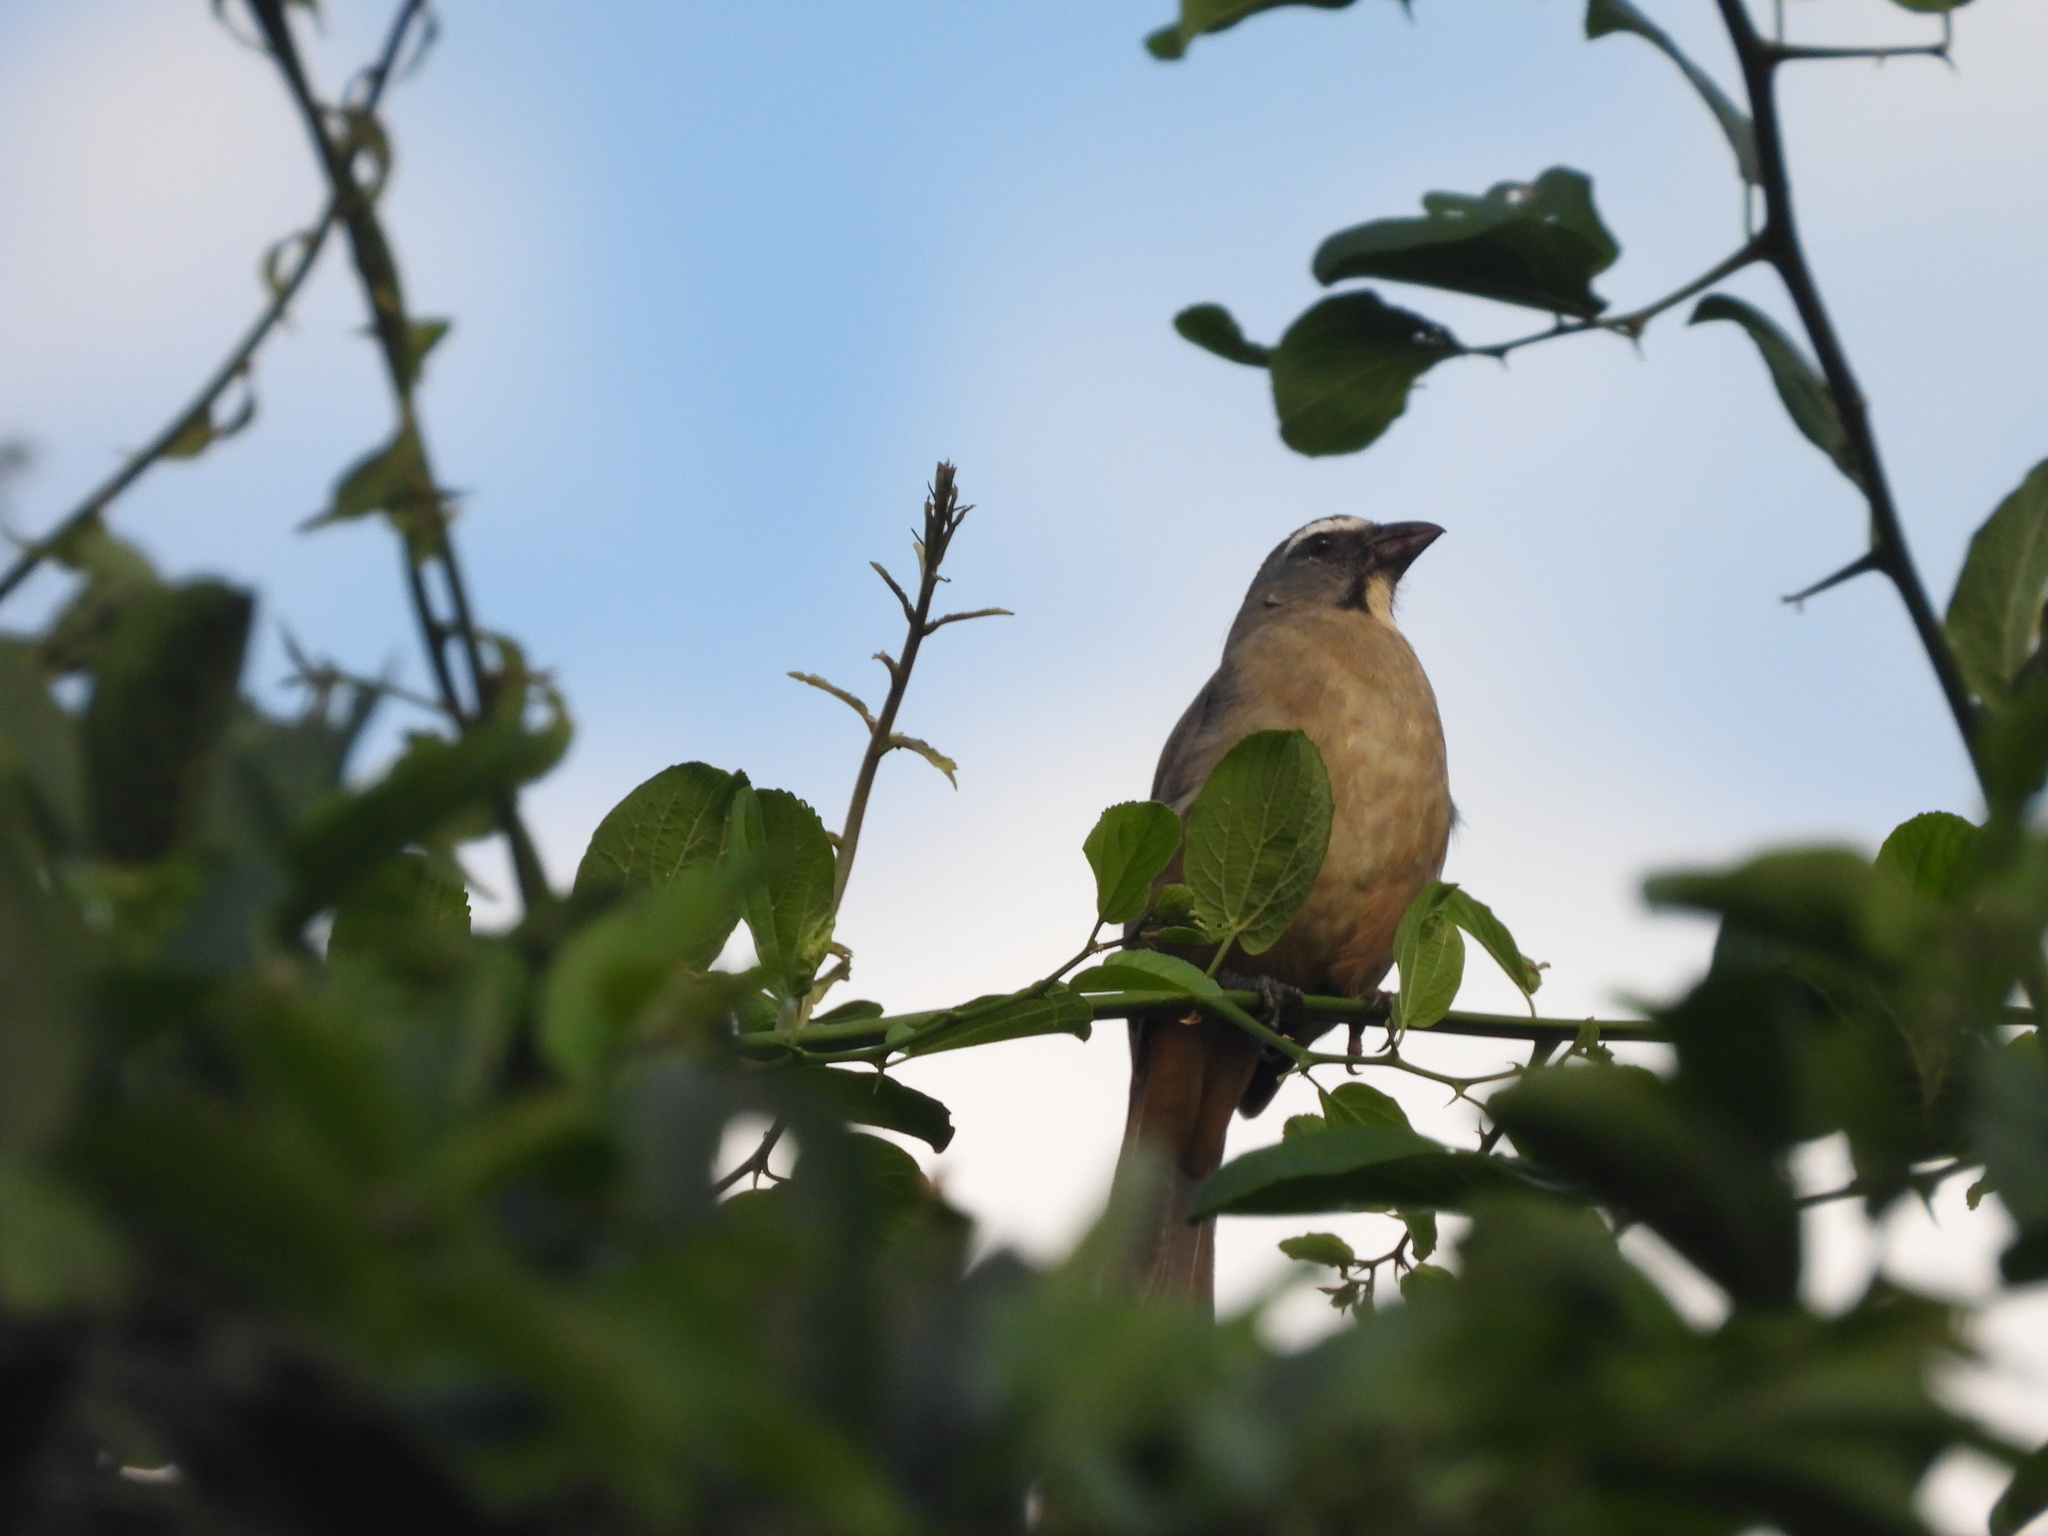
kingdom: Animalia
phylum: Chordata
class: Aves
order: Passeriformes
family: Thraupidae
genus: Saltator
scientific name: Saltator grandis
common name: Cinnamon-bellied saltator
